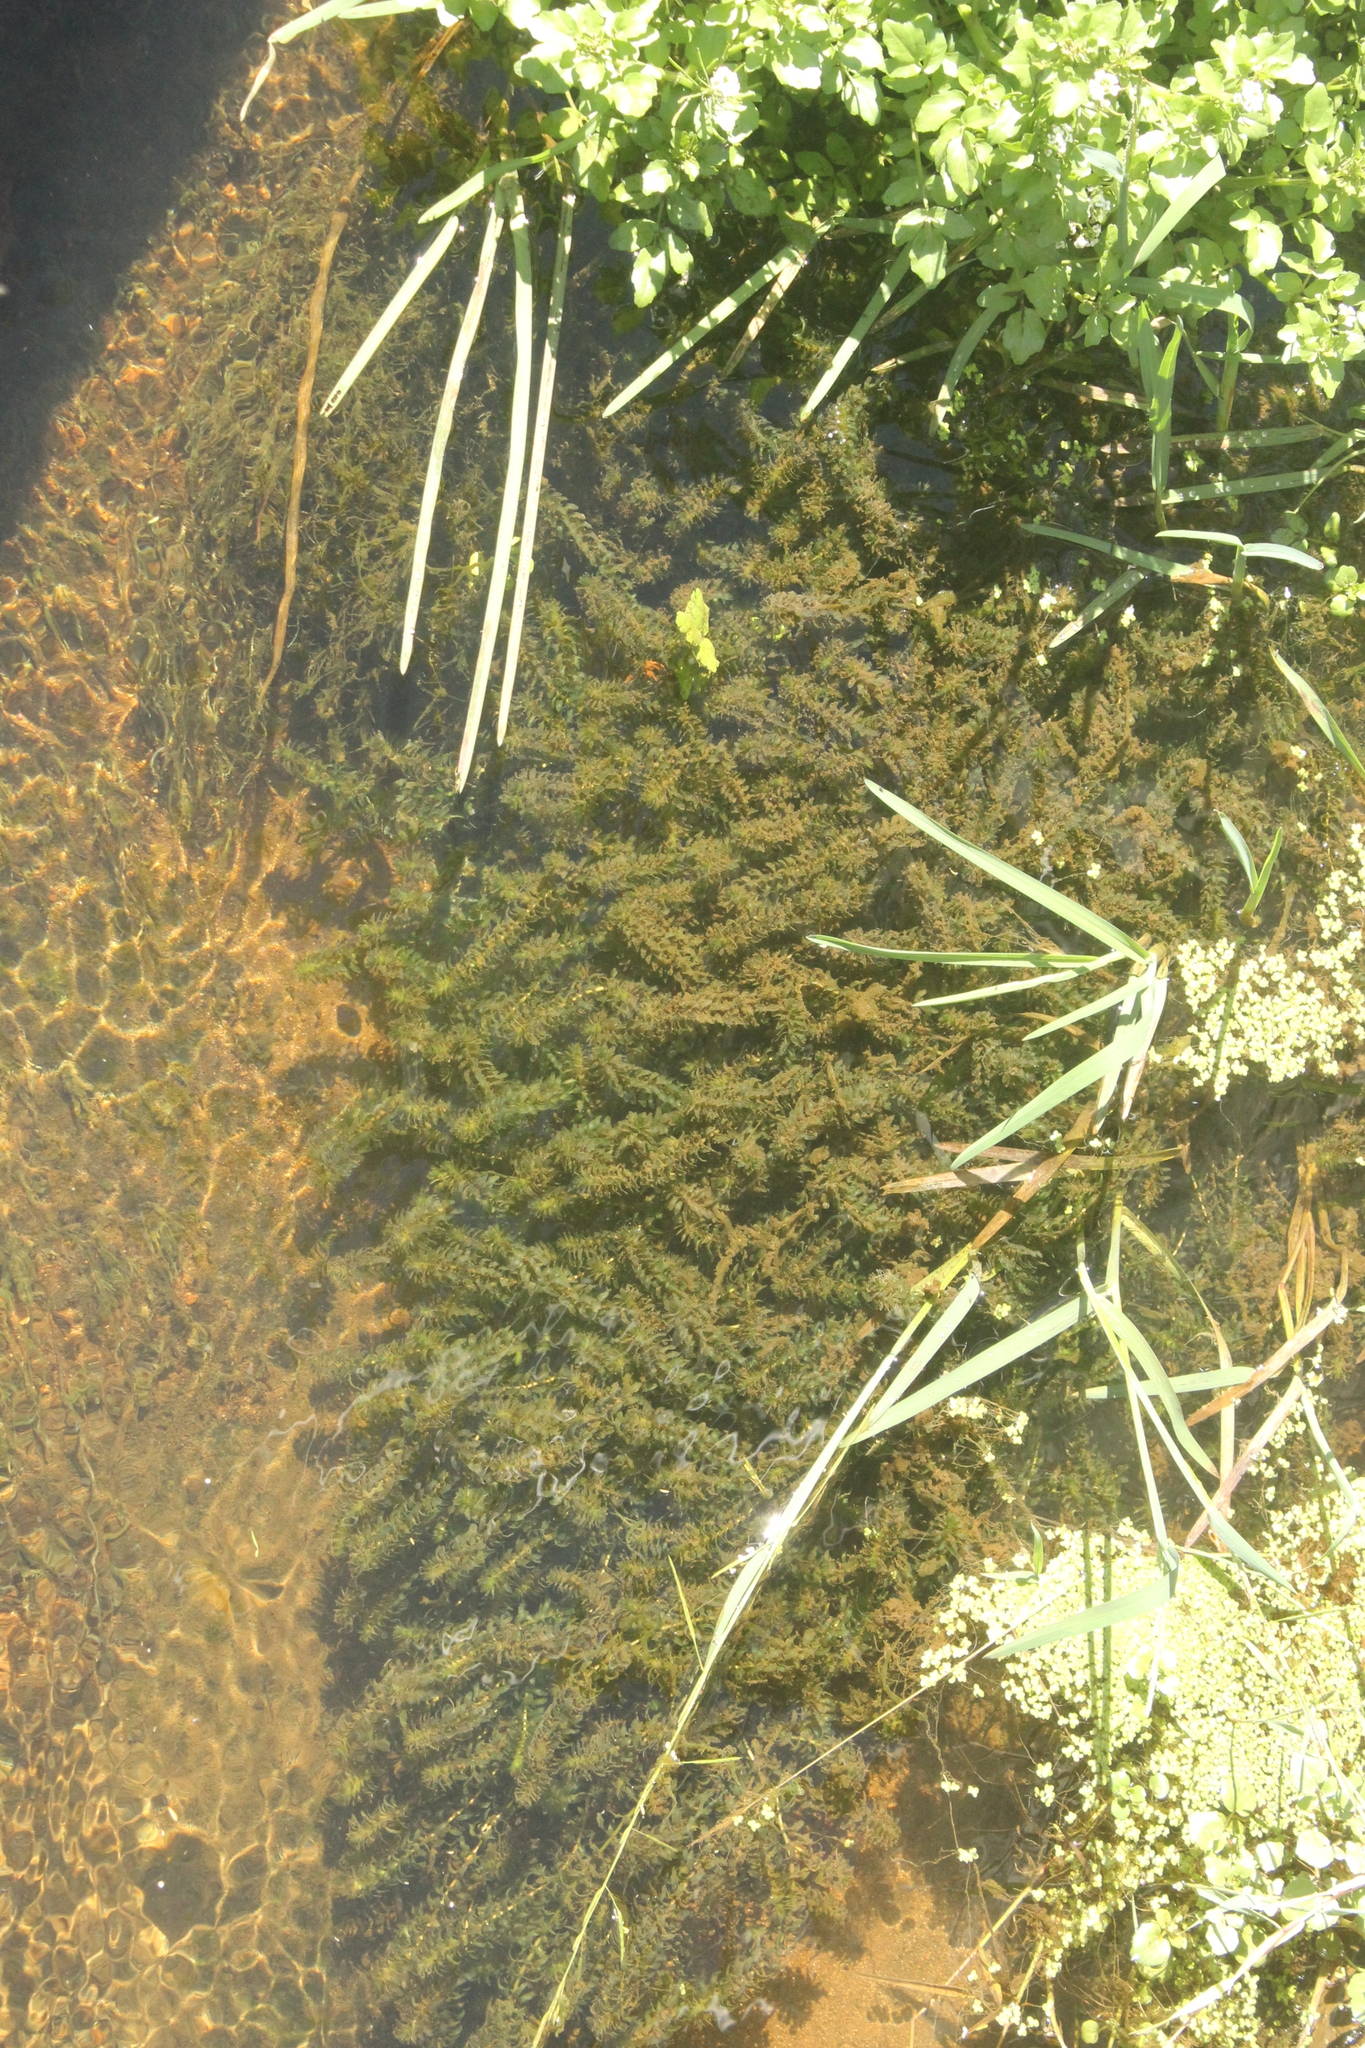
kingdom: Plantae
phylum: Tracheophyta
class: Liliopsida
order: Alismatales
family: Hydrocharitaceae
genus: Elodea
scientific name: Elodea canadensis
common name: Canadian waterweed
